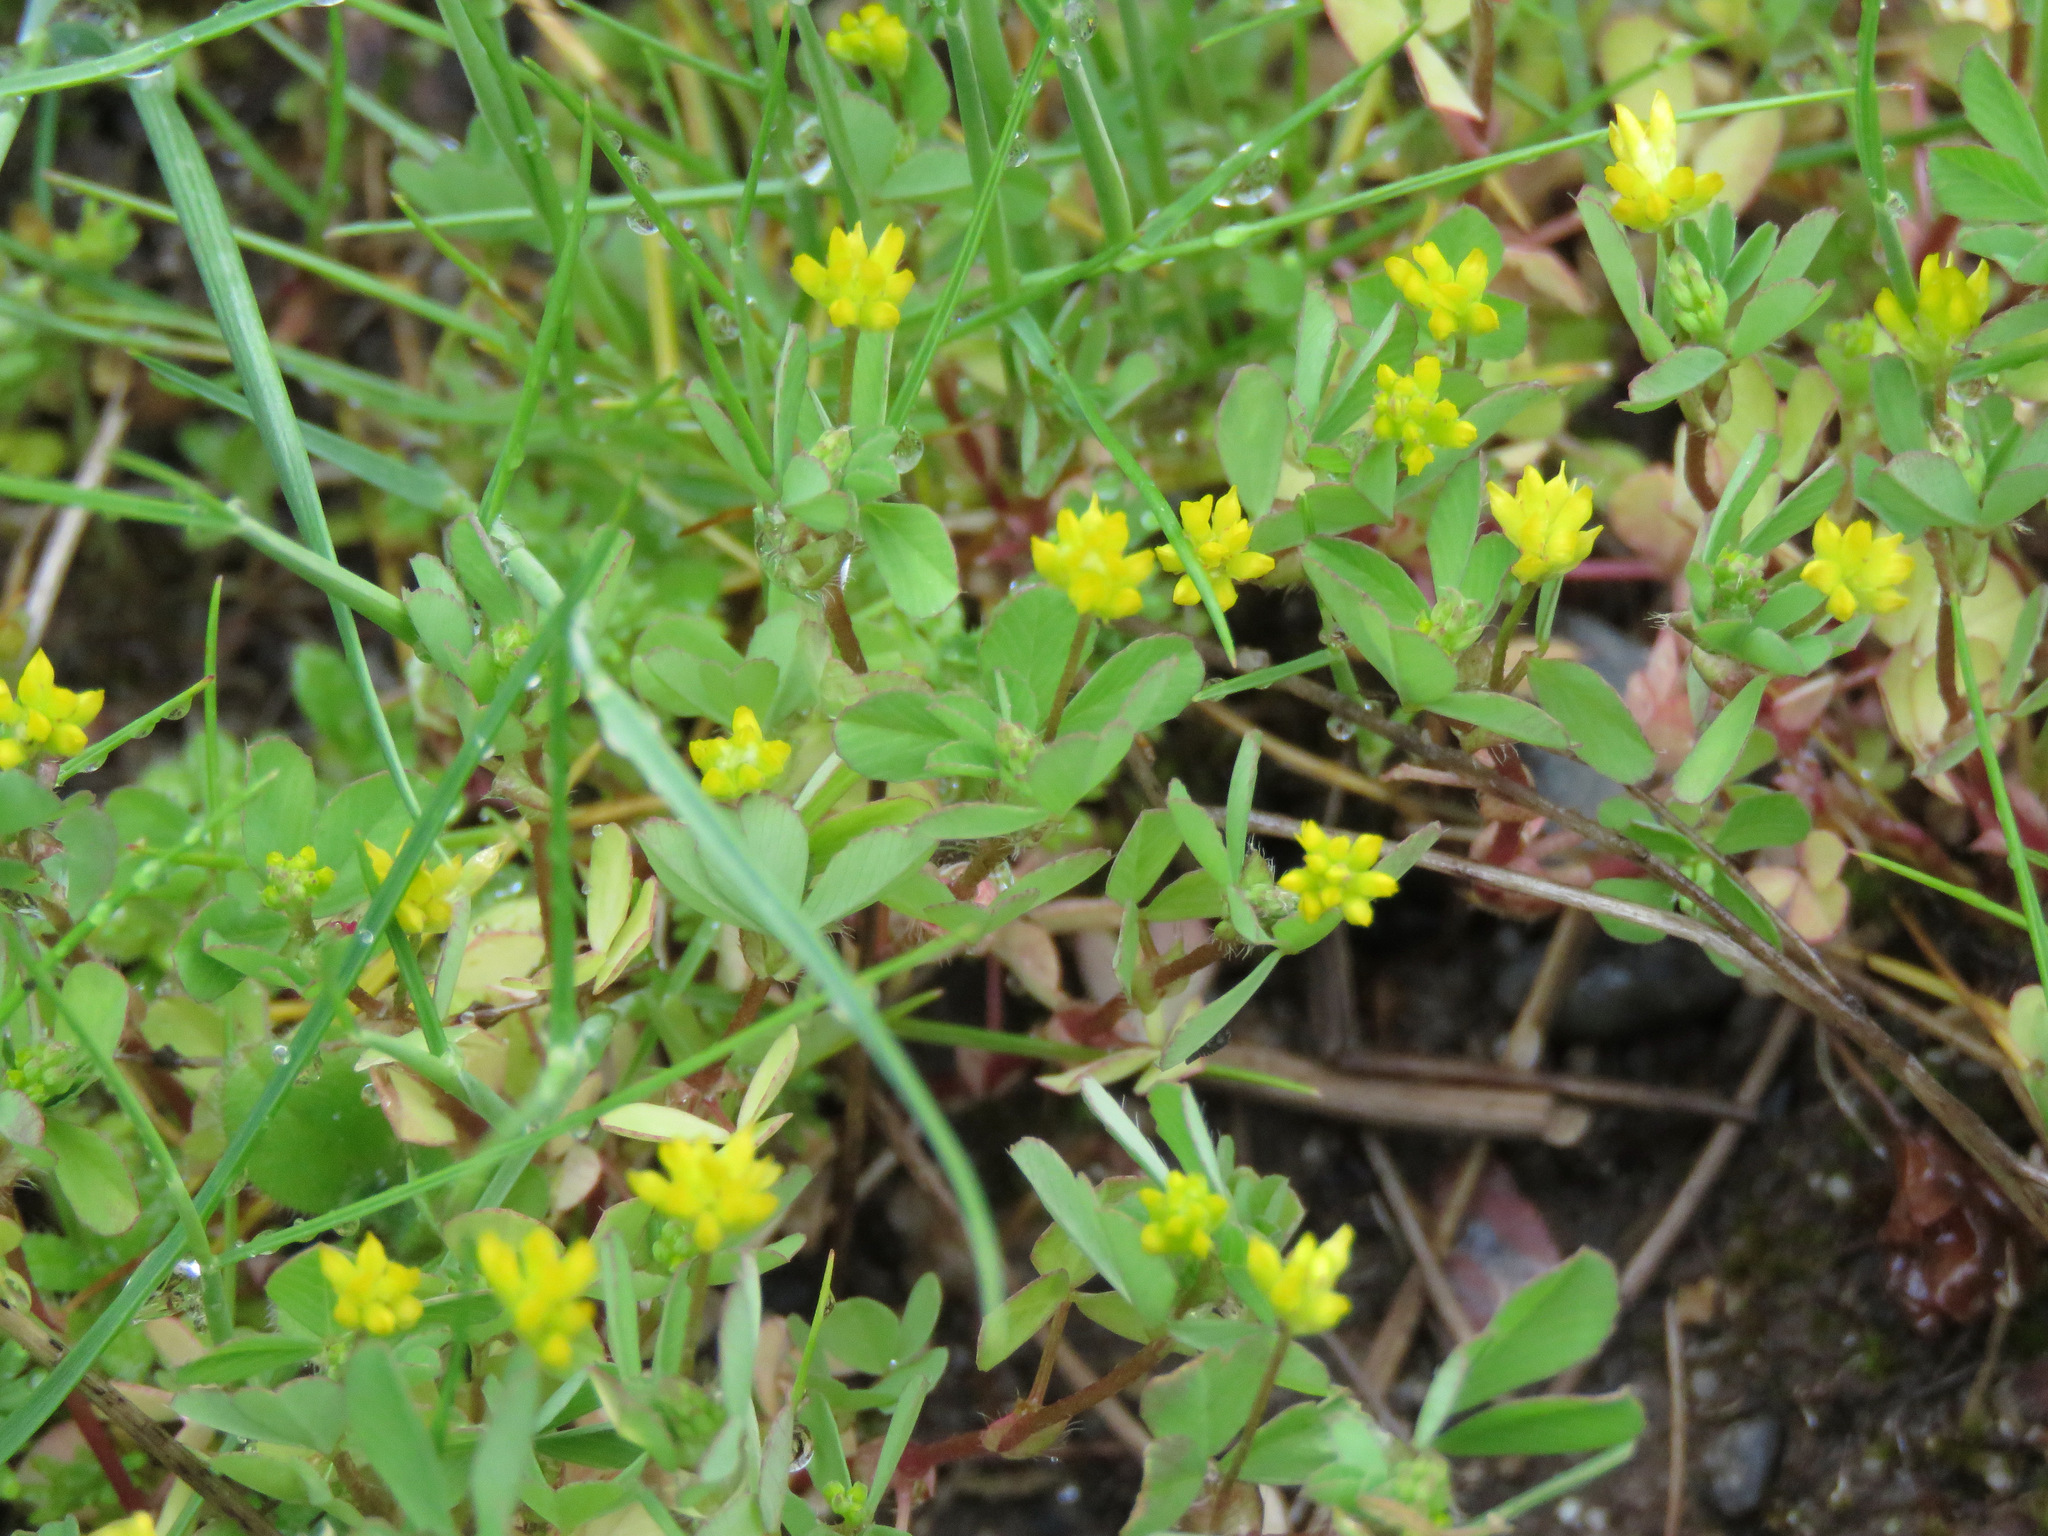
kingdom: Plantae
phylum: Tracheophyta
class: Magnoliopsida
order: Fabales
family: Fabaceae
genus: Trifolium
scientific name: Trifolium dubium
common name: Suckling clover
